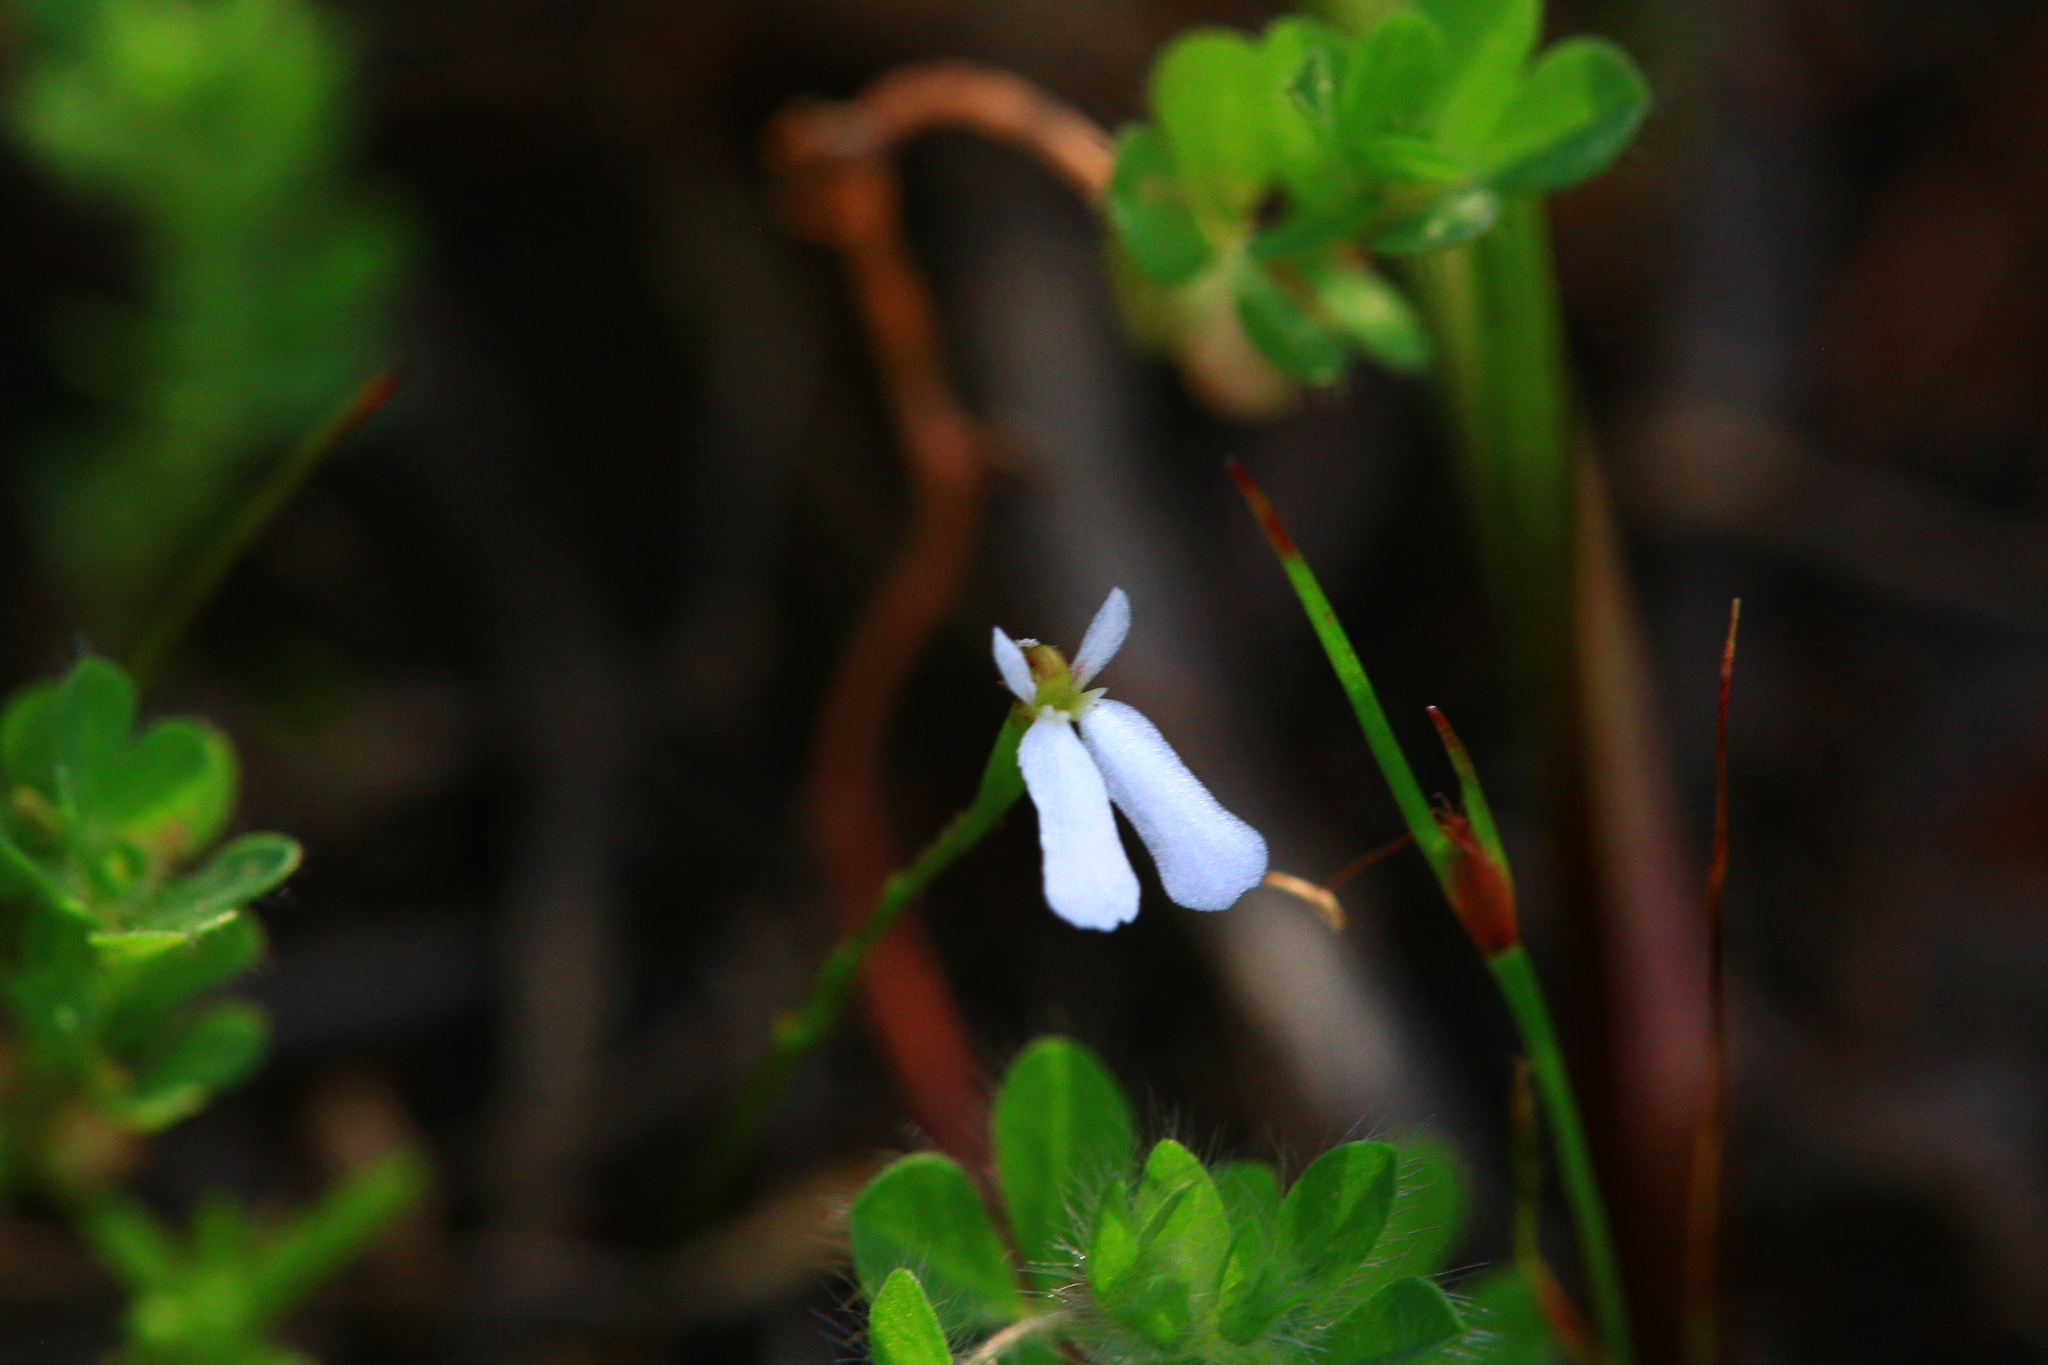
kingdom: Plantae
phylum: Tracheophyta
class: Magnoliopsida
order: Asterales
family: Stylidiaceae
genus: Stylidium
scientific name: Stylidium obtusatum
